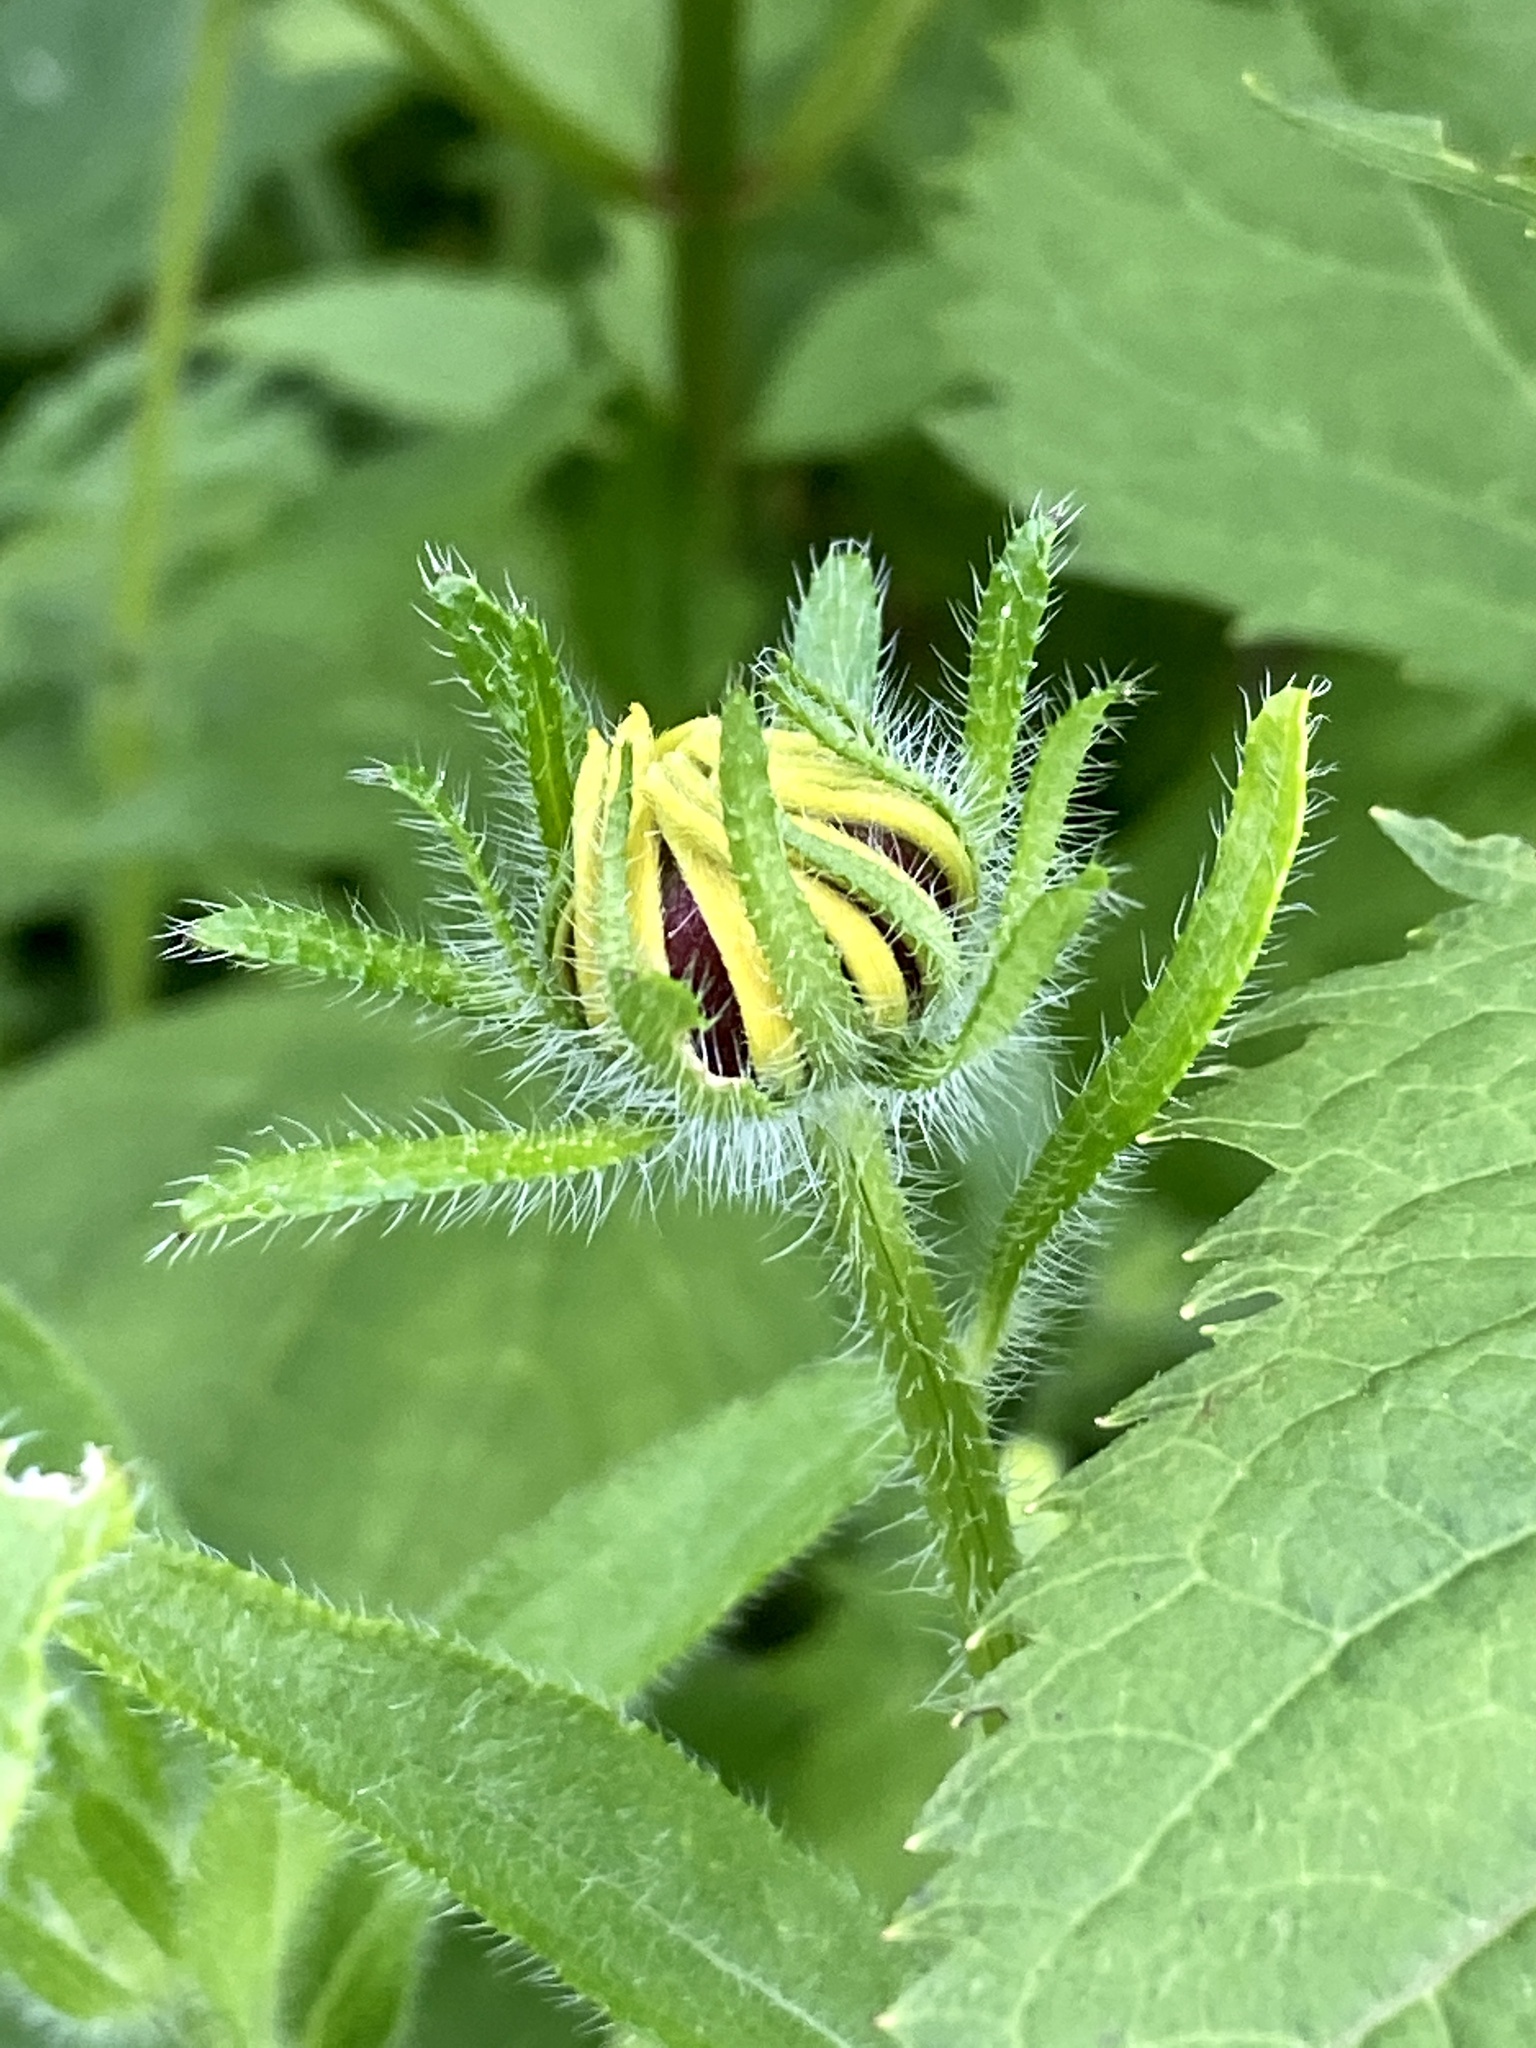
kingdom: Plantae
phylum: Tracheophyta
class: Magnoliopsida
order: Asterales
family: Asteraceae
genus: Rudbeckia
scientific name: Rudbeckia hirta
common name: Black-eyed-susan
